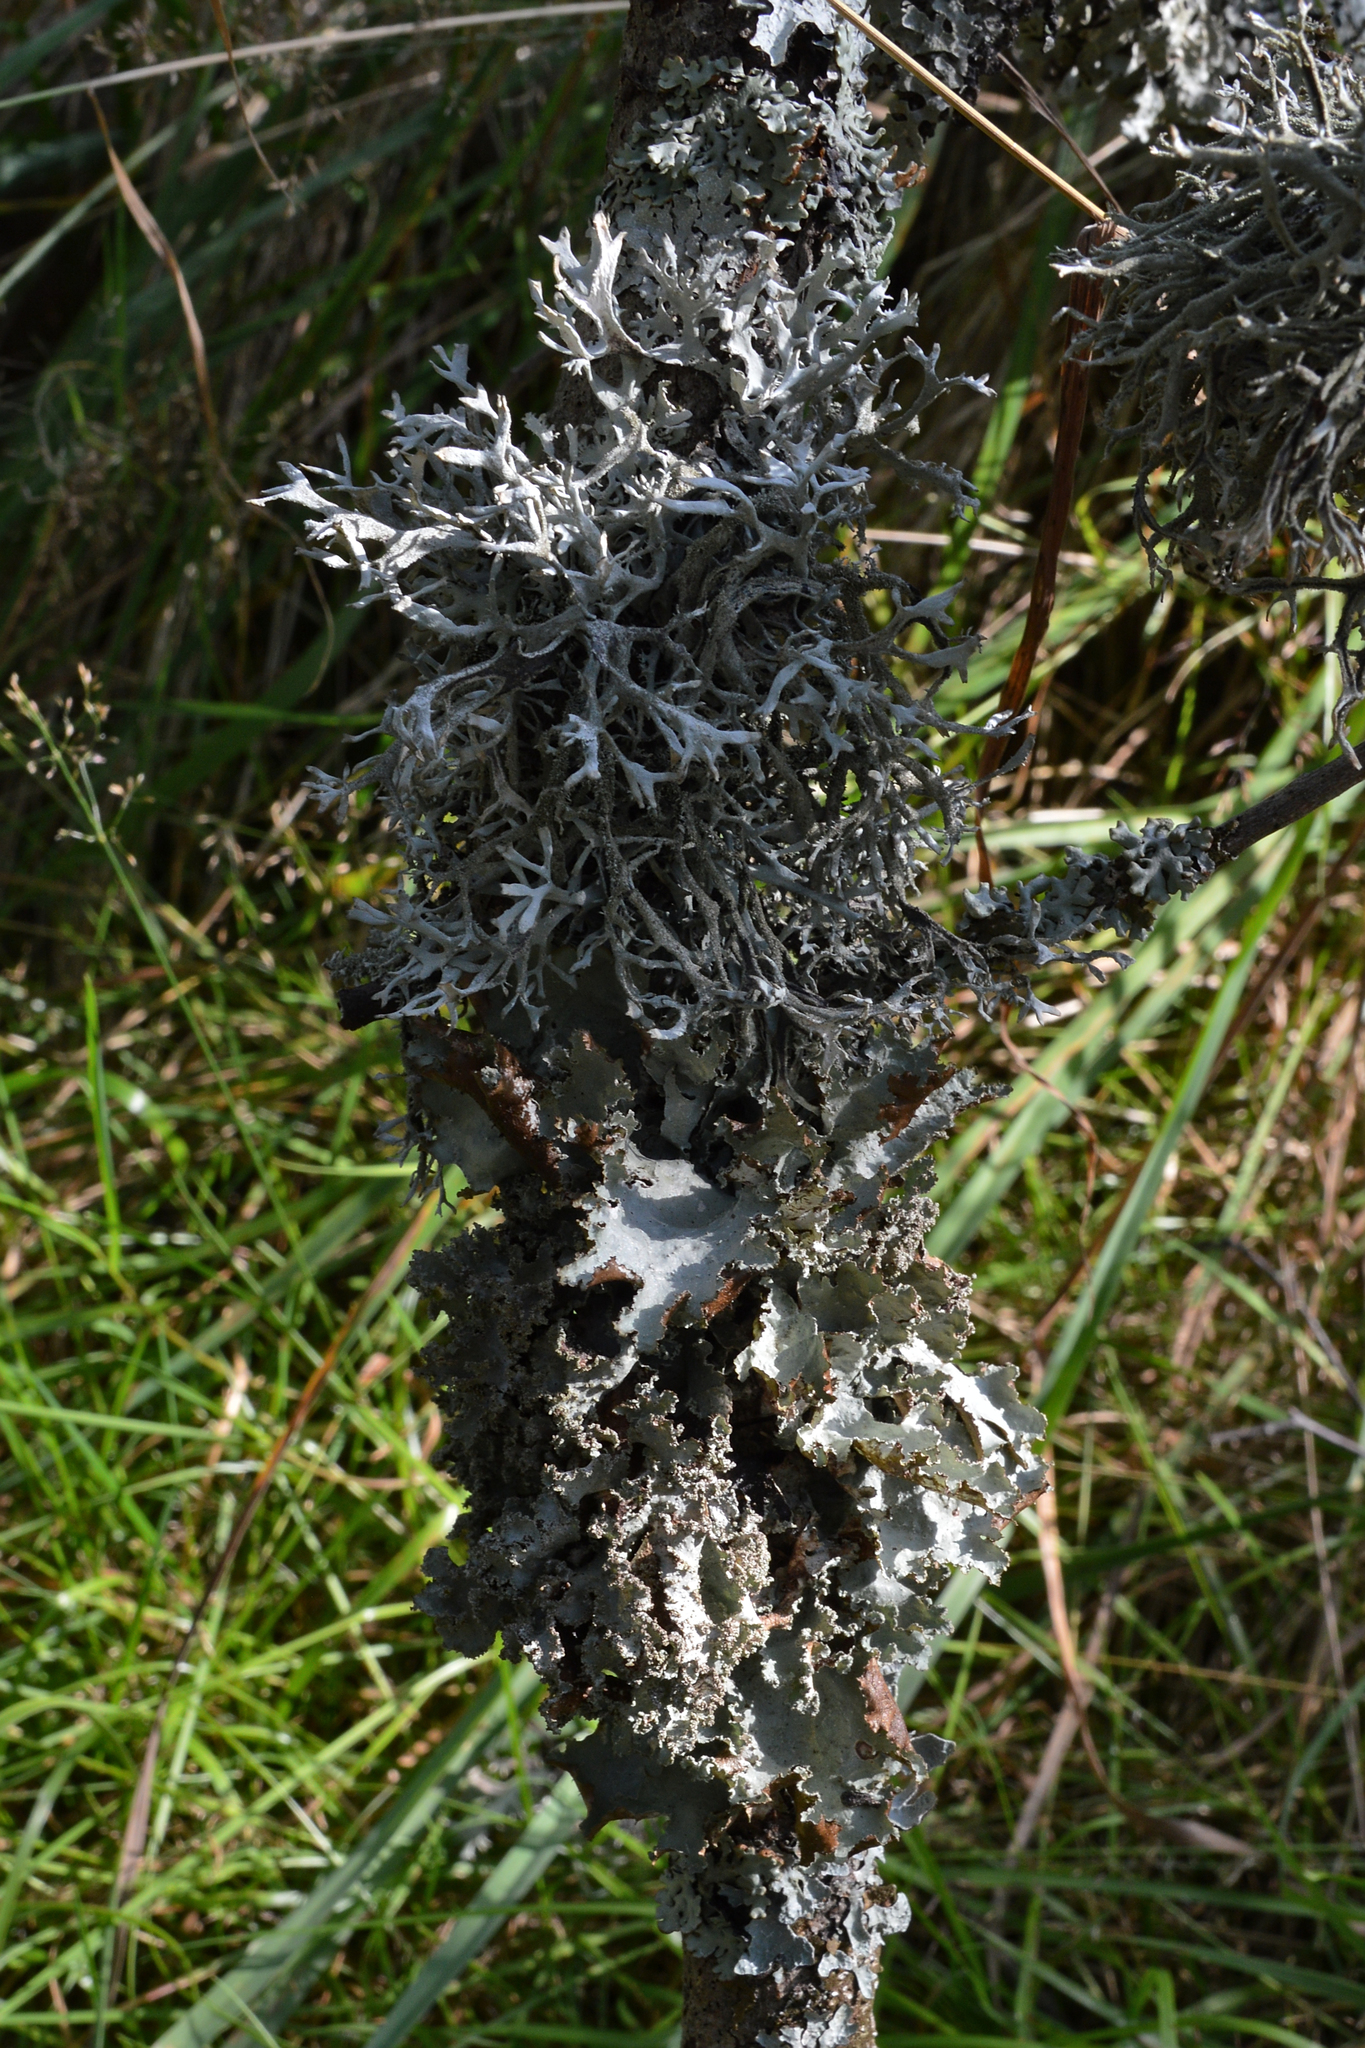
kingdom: Fungi
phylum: Ascomycota
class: Lecanoromycetes
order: Lecanorales
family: Parmeliaceae
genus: Pseudevernia
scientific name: Pseudevernia furfuracea
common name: Tree moss
